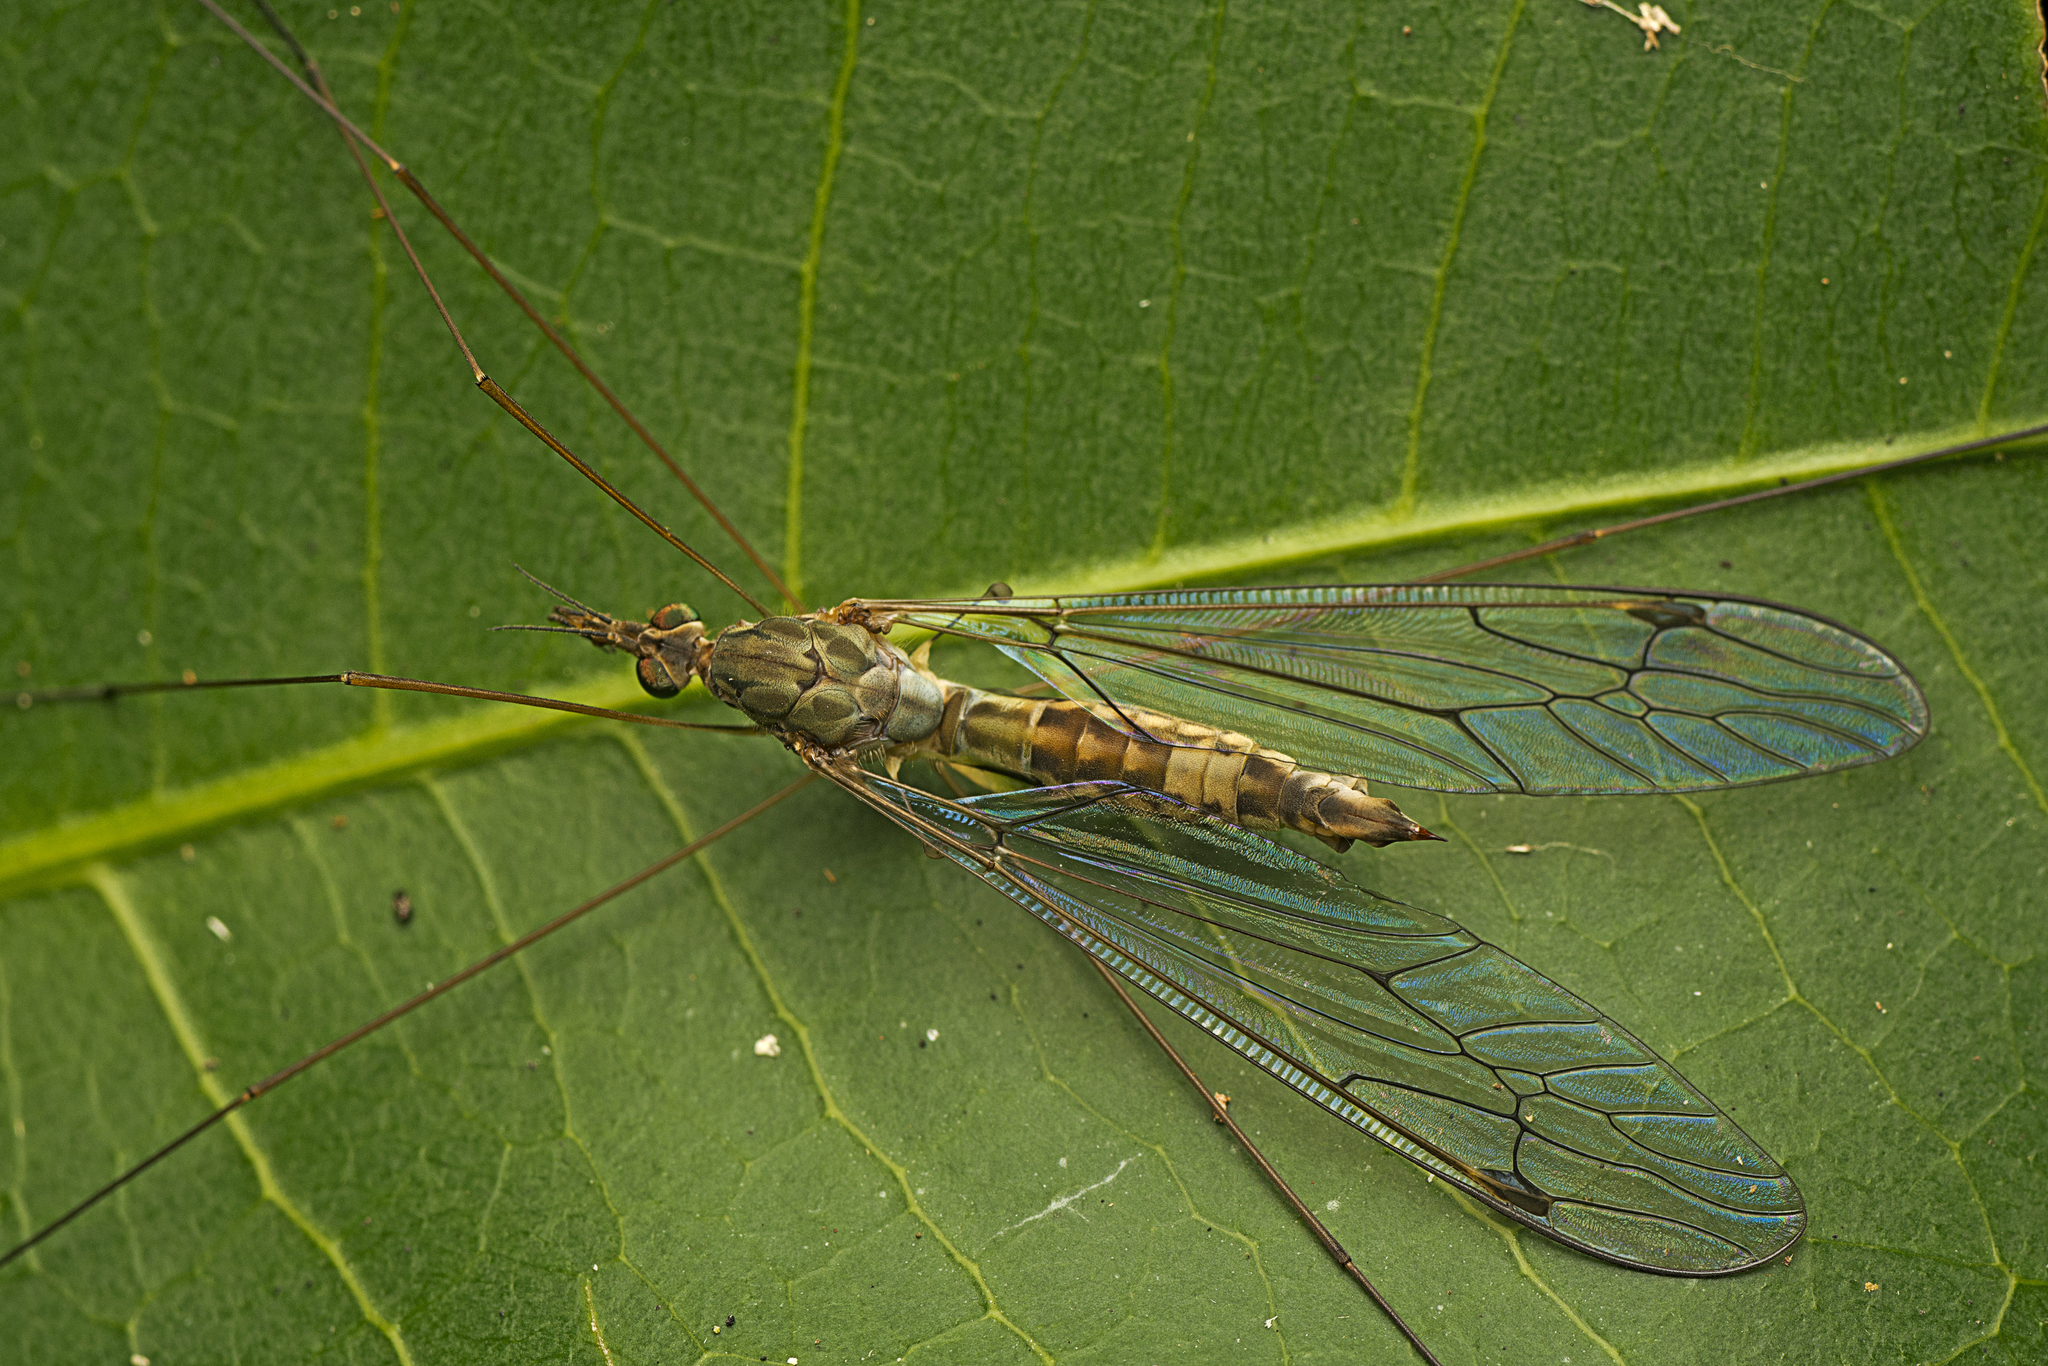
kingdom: Animalia
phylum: Arthropoda
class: Insecta
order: Diptera
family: Tipulidae
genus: Maekistocera
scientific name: Maekistocera filipes
